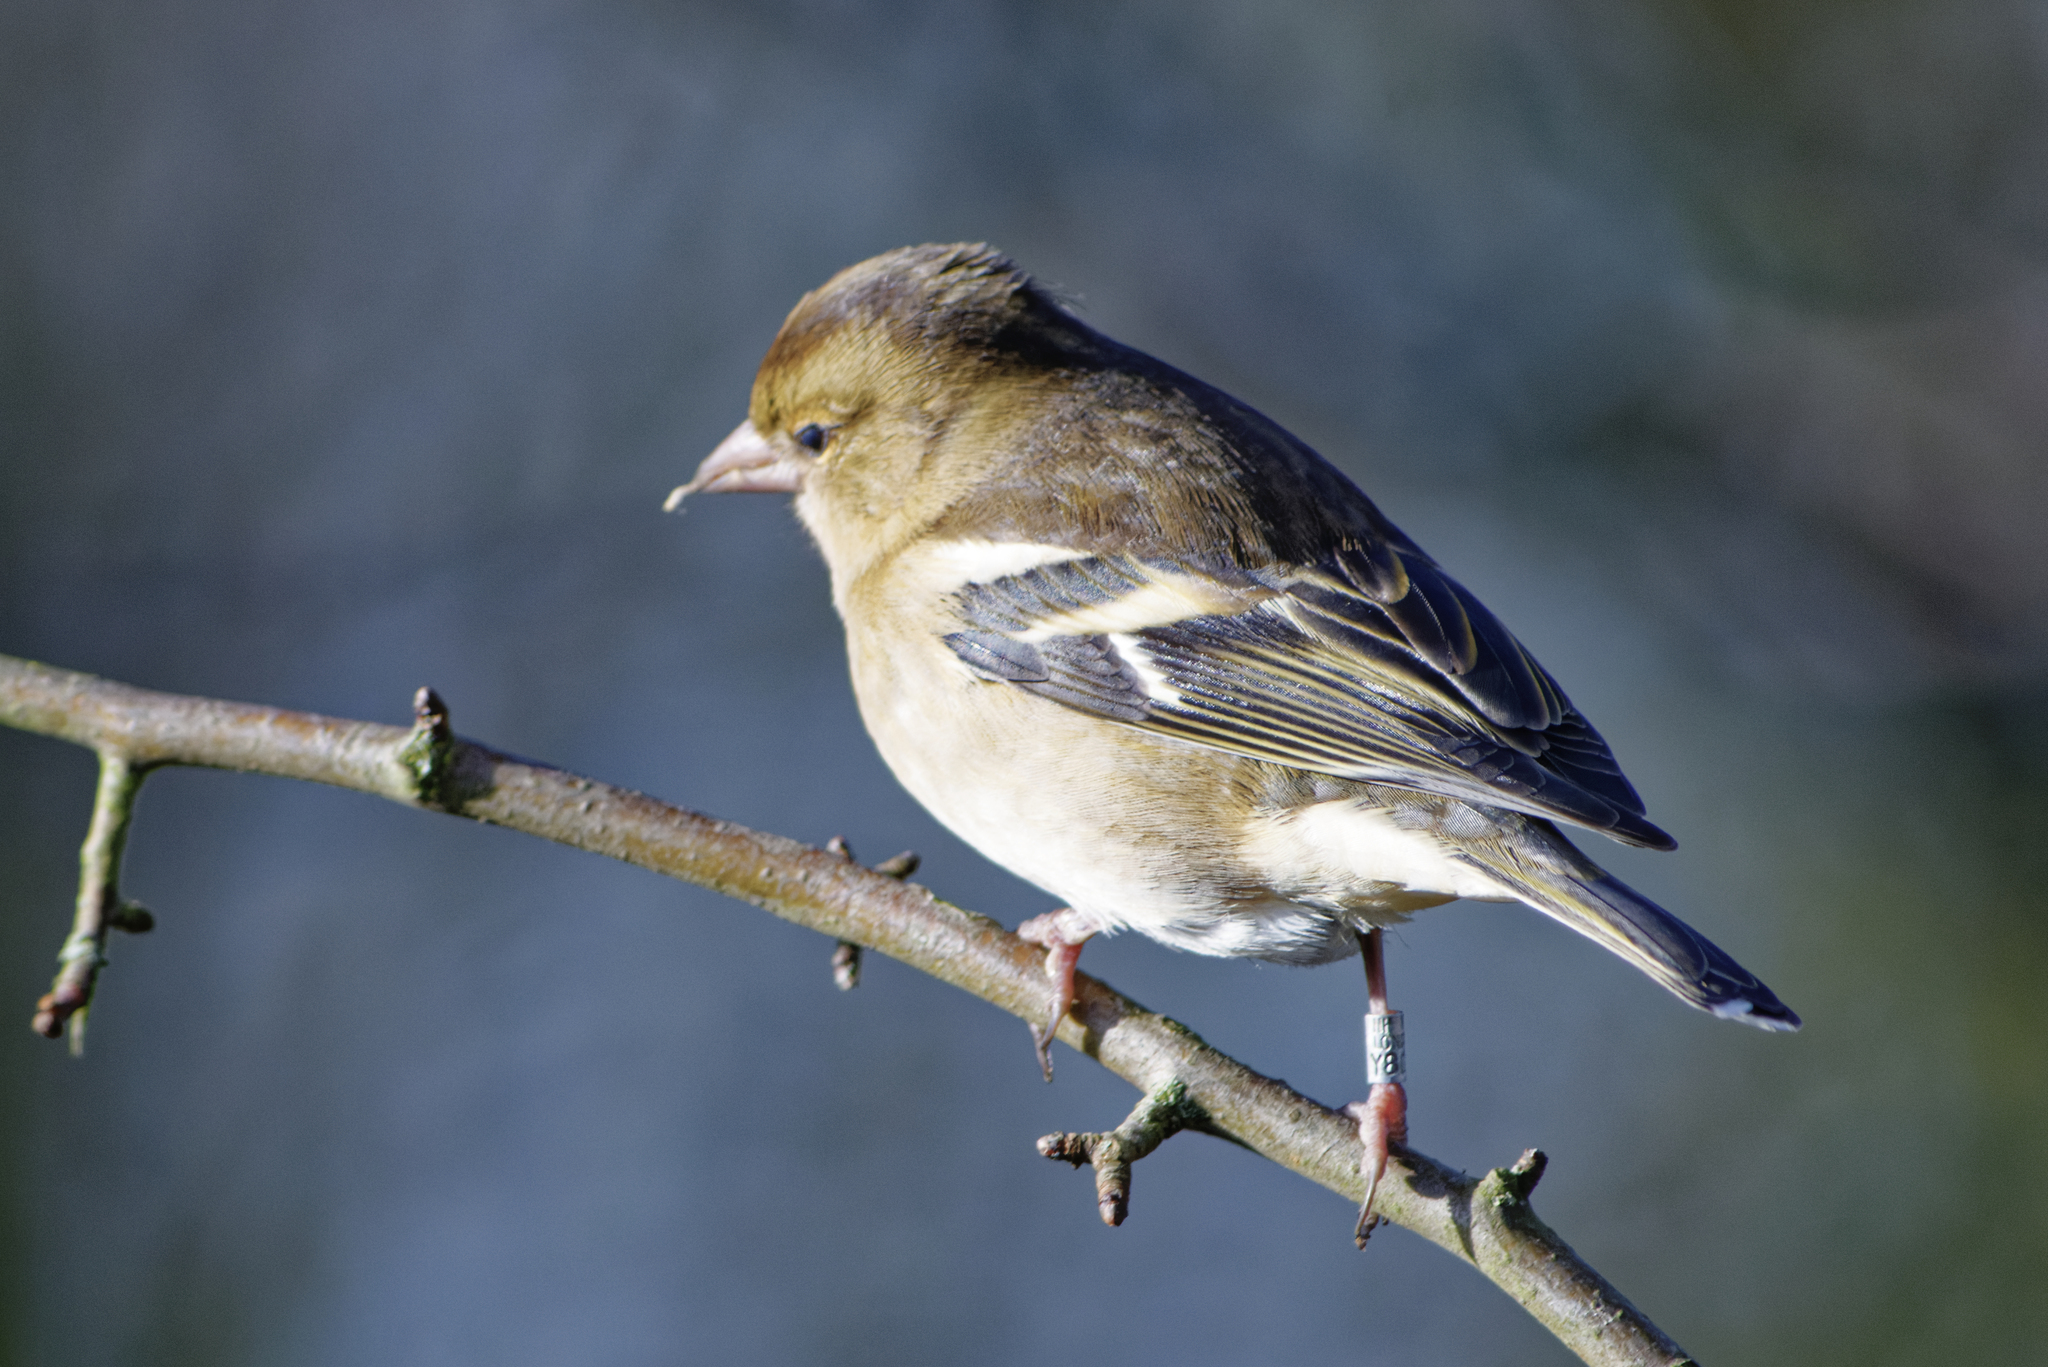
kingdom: Animalia
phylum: Chordata
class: Aves
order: Passeriformes
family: Fringillidae
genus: Fringilla
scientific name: Fringilla coelebs
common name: Common chaffinch
